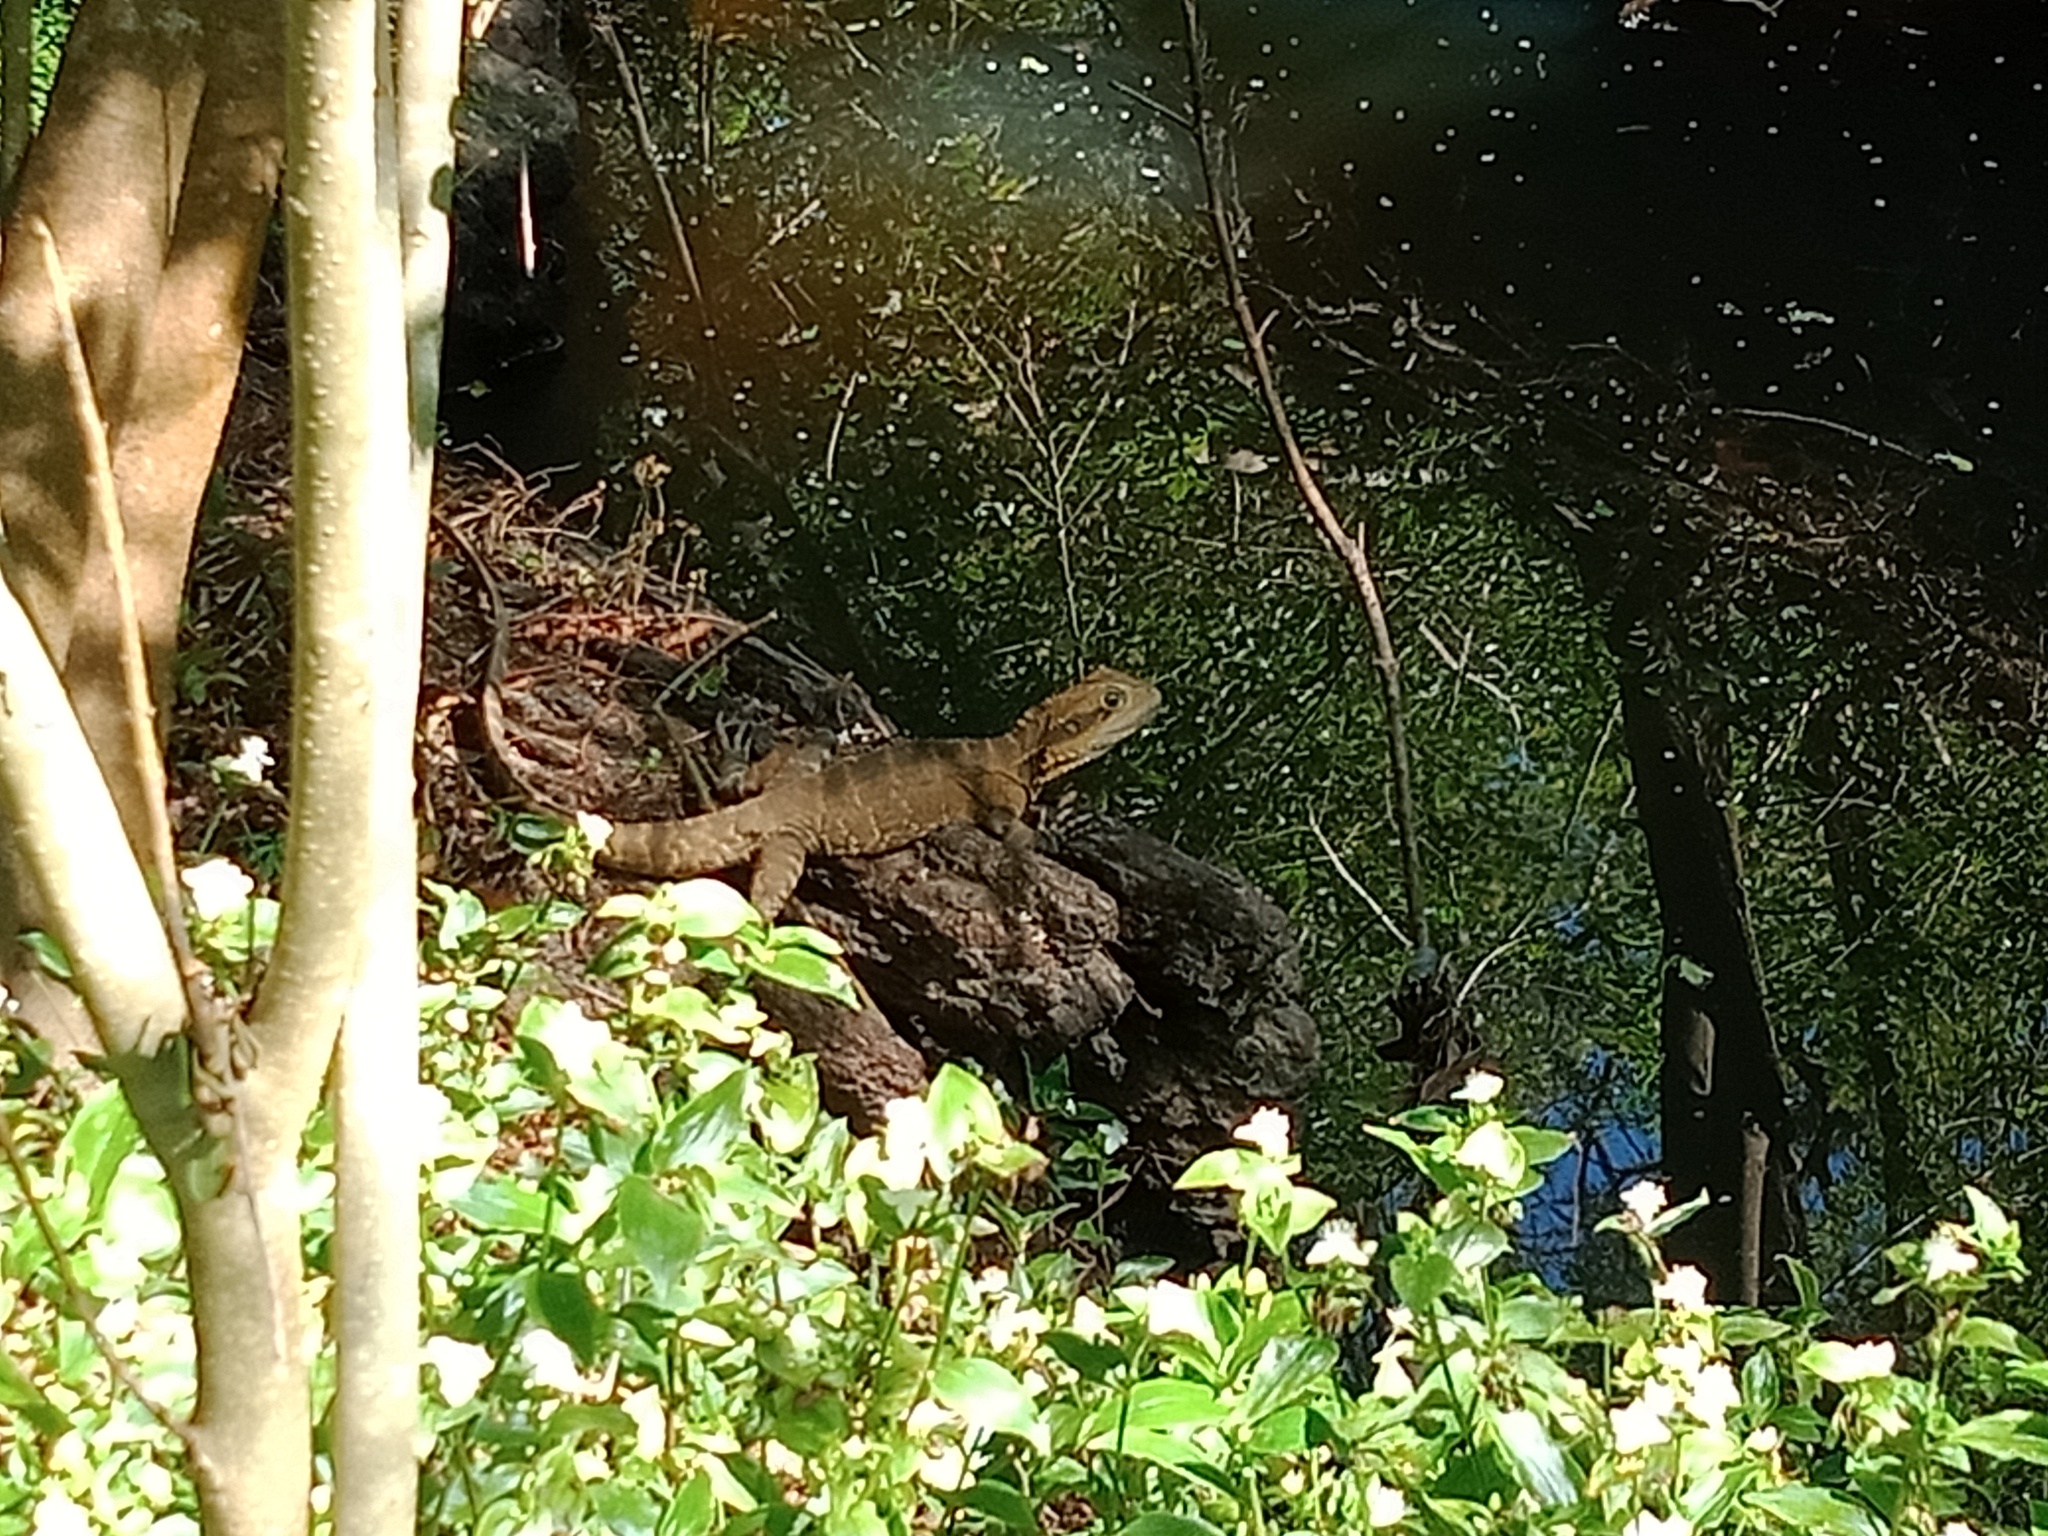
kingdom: Animalia
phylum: Chordata
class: Squamata
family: Agamidae
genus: Intellagama
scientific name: Intellagama lesueurii
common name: Eastern water dragon
